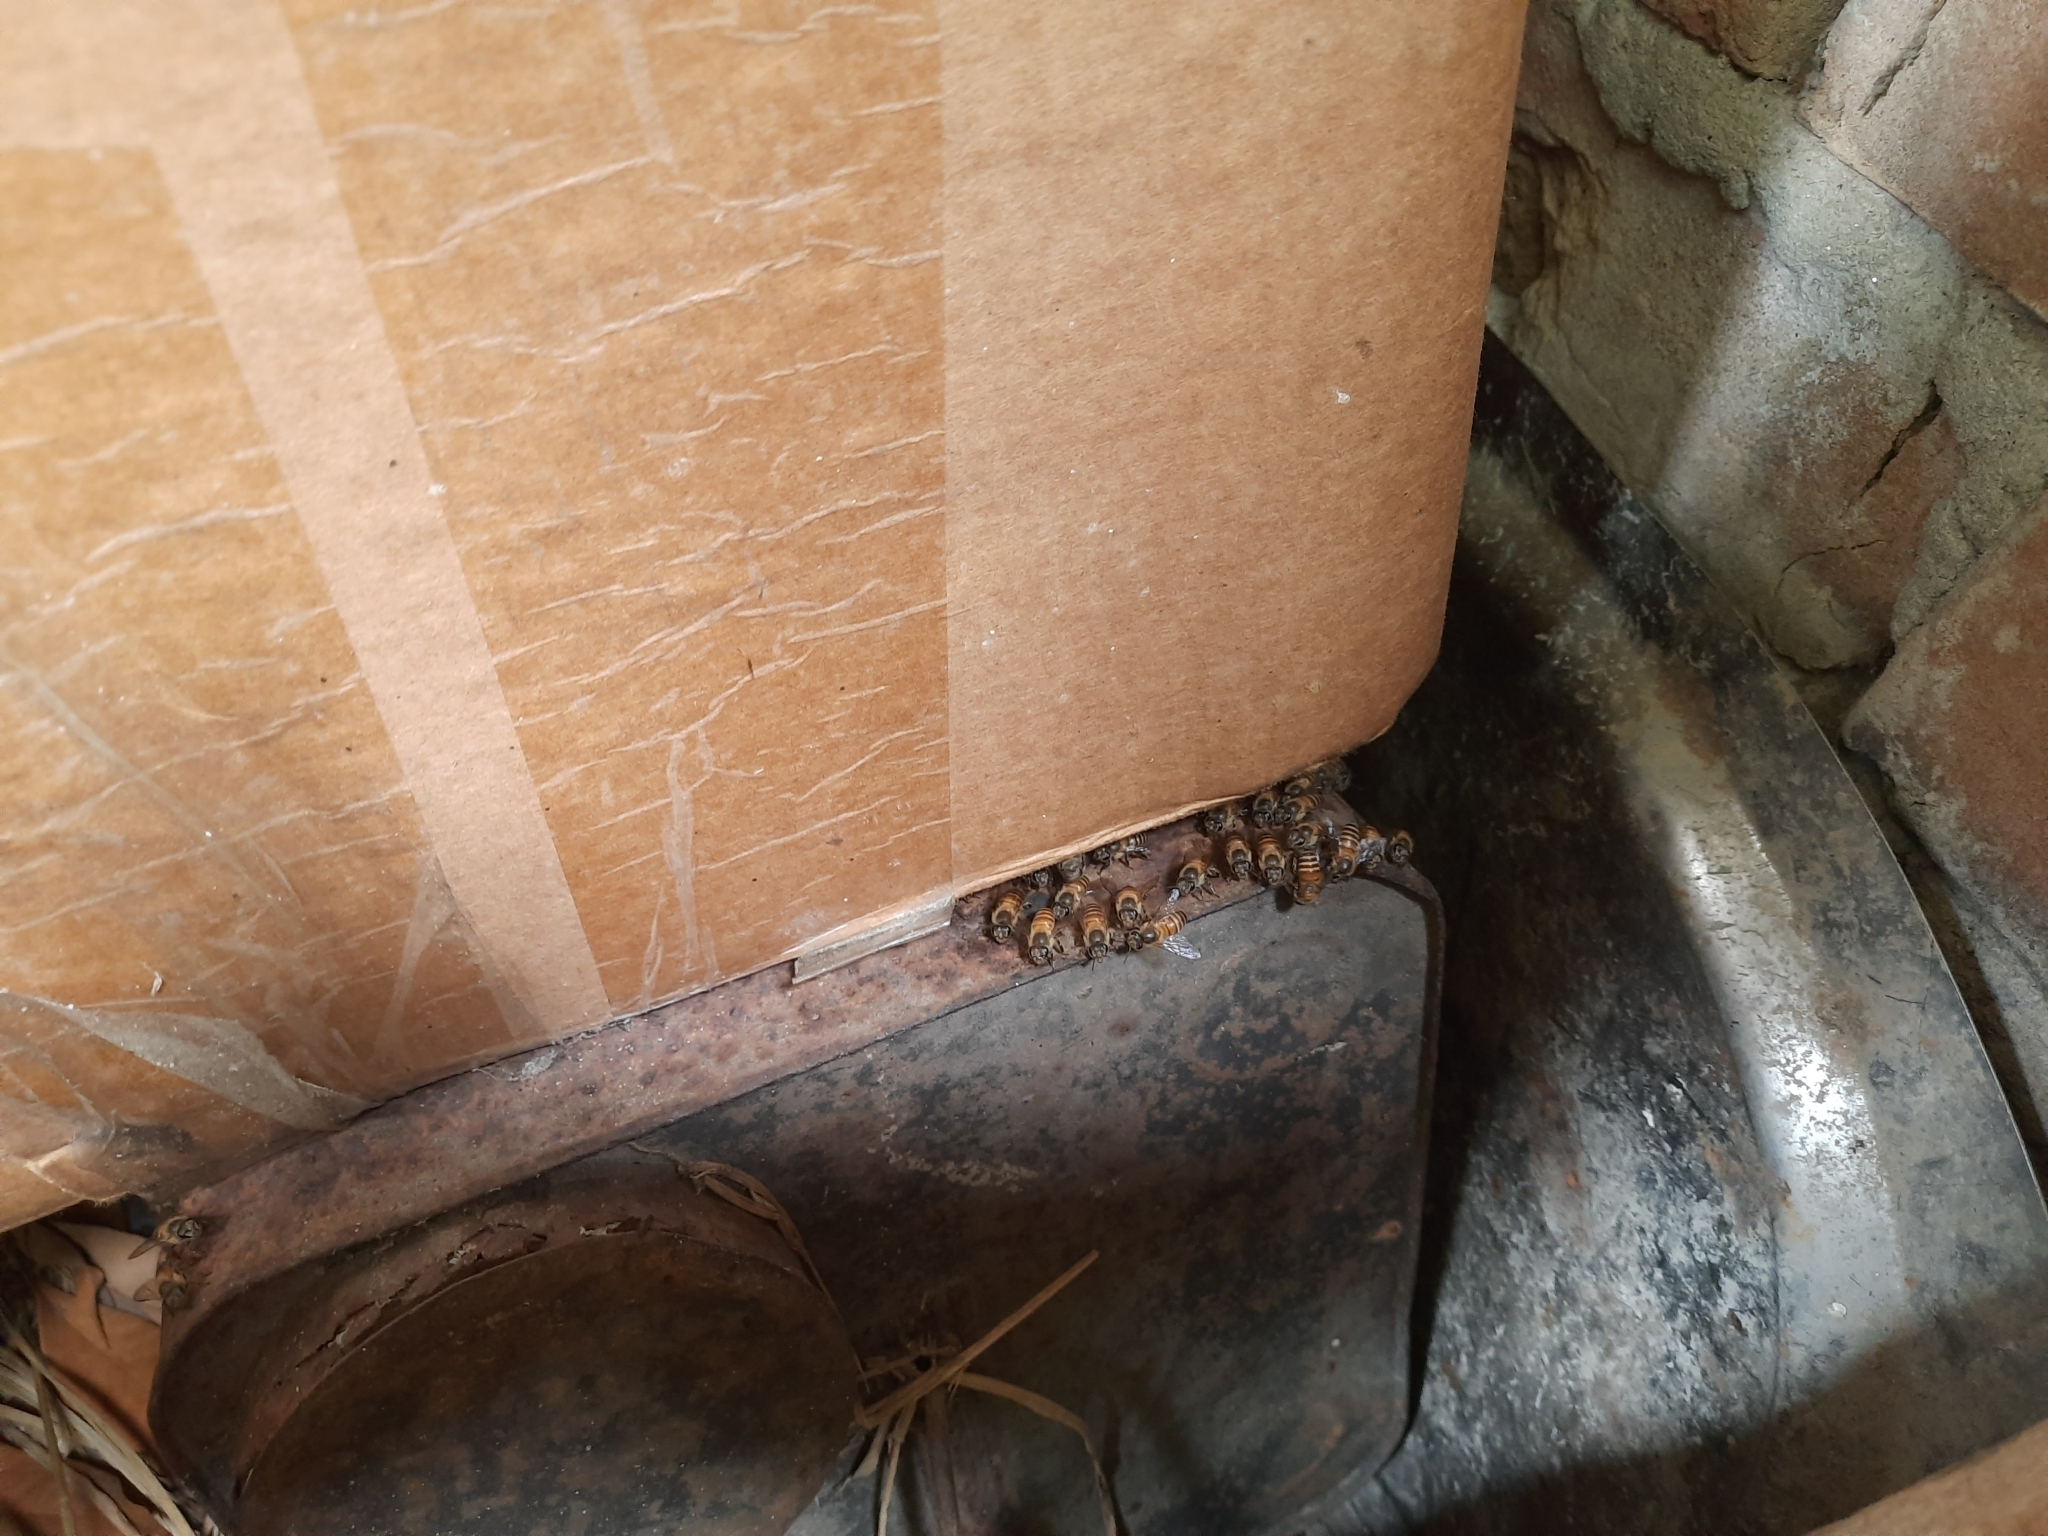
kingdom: Animalia
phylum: Arthropoda
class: Insecta
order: Hymenoptera
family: Apidae
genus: Apis
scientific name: Apis cerana
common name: Honey bee
